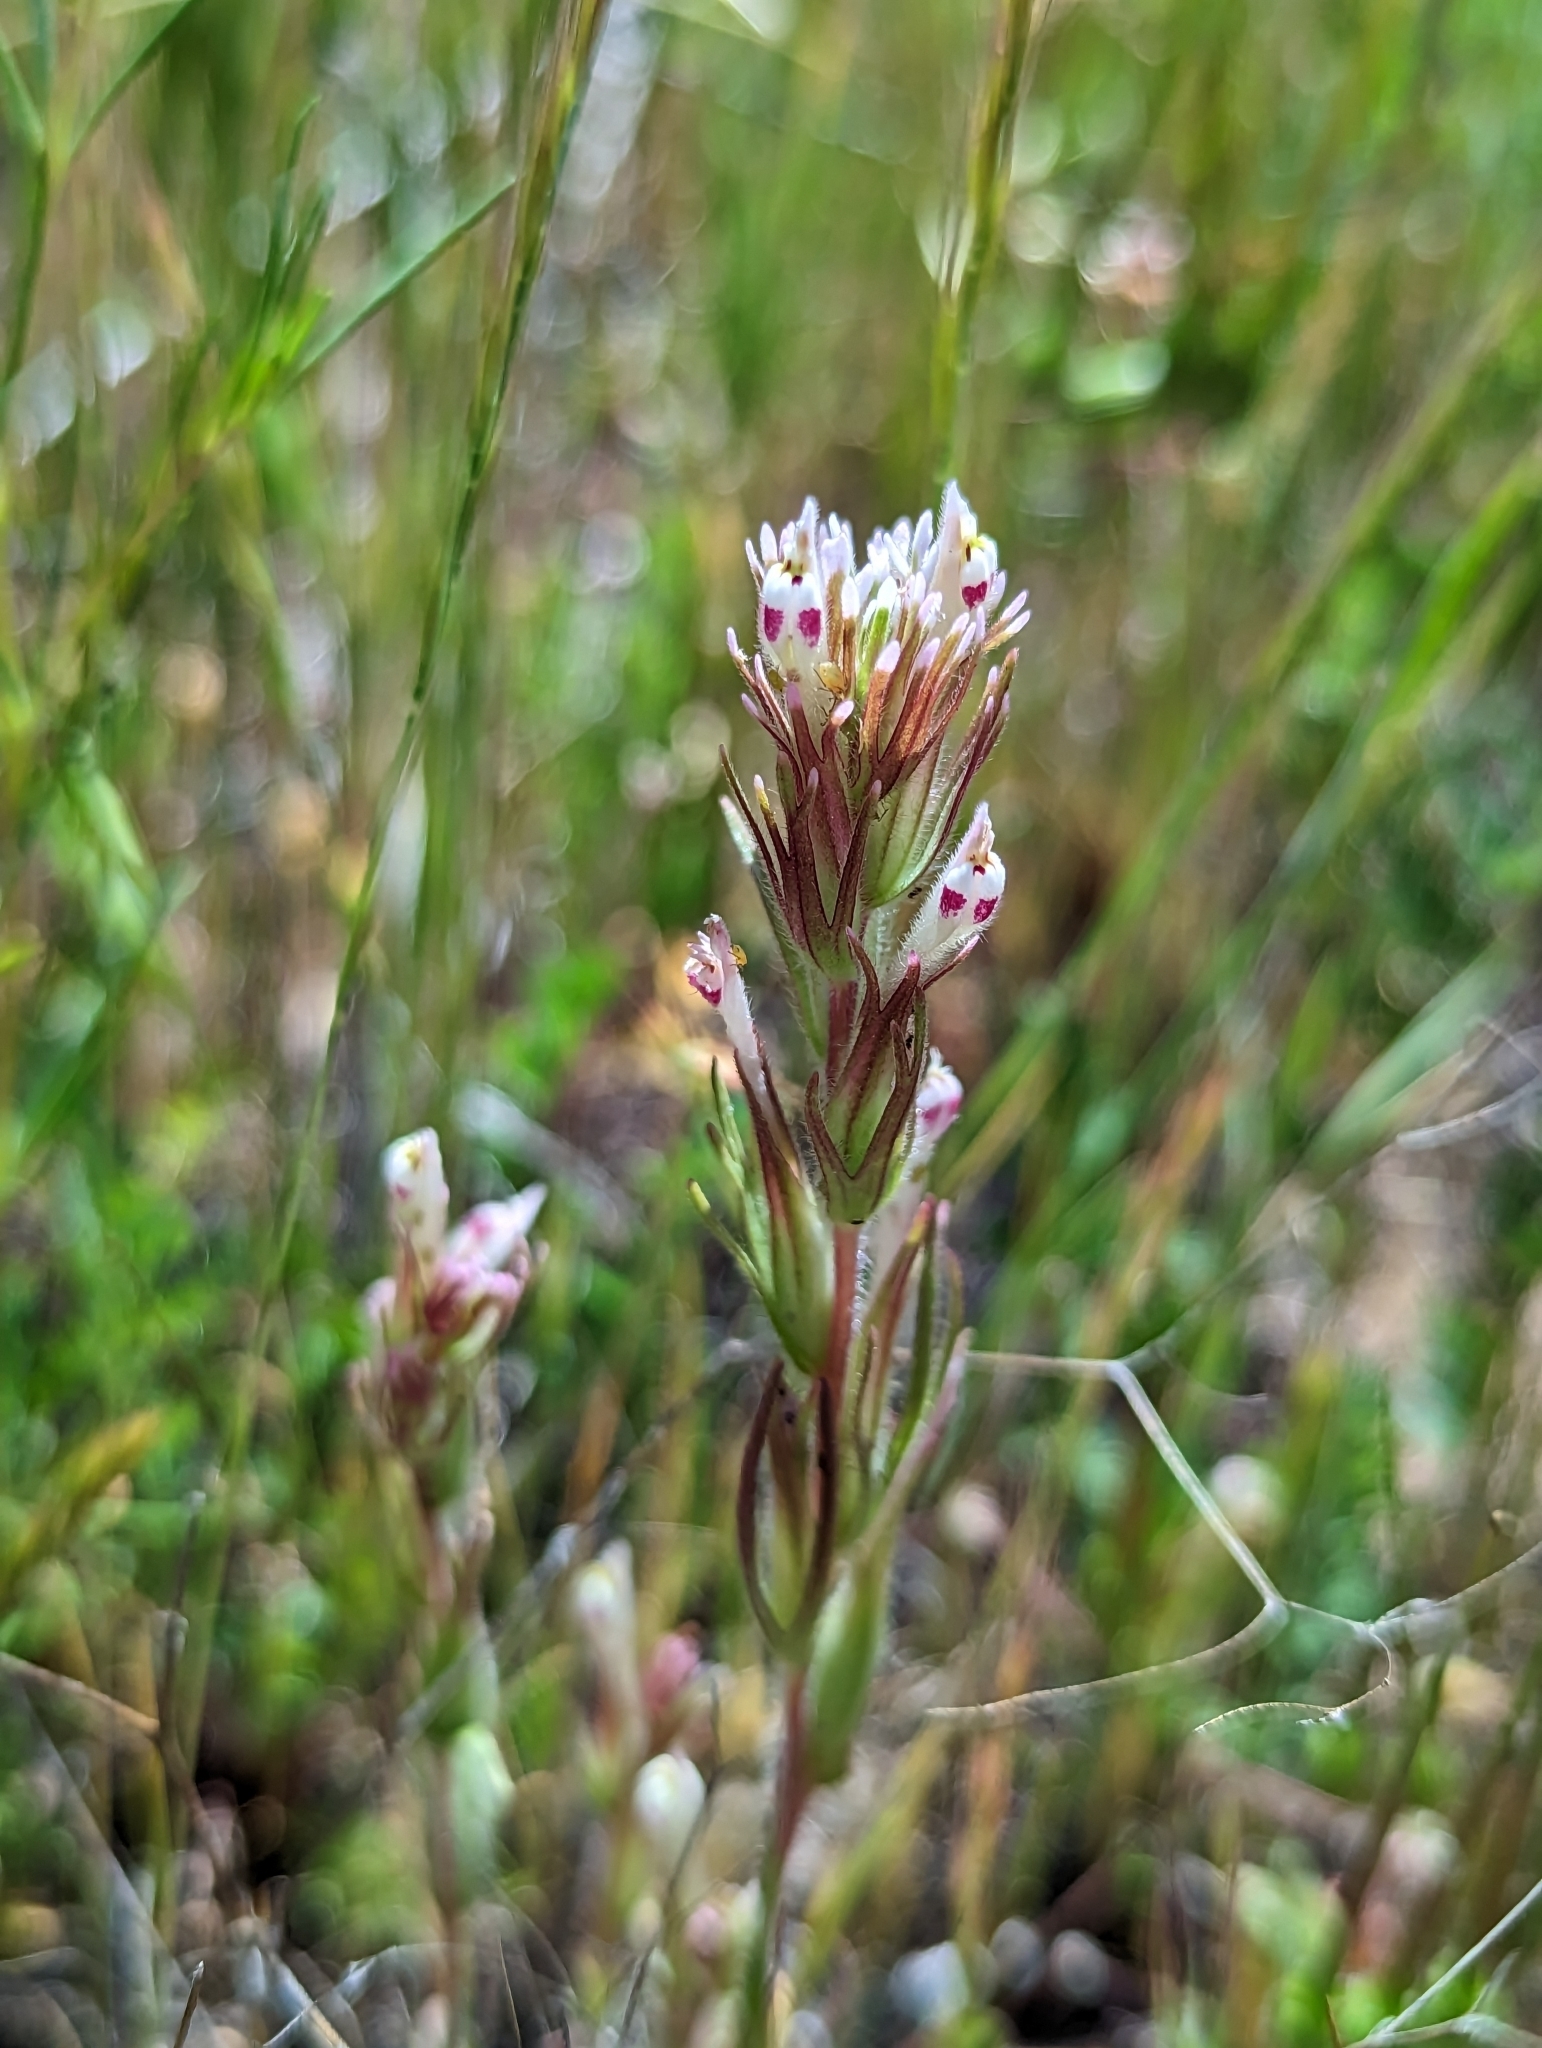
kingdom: Plantae
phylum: Tracheophyta
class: Magnoliopsida
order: Lamiales
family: Orobanchaceae
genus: Castilleja
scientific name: Castilleja brevistyla
